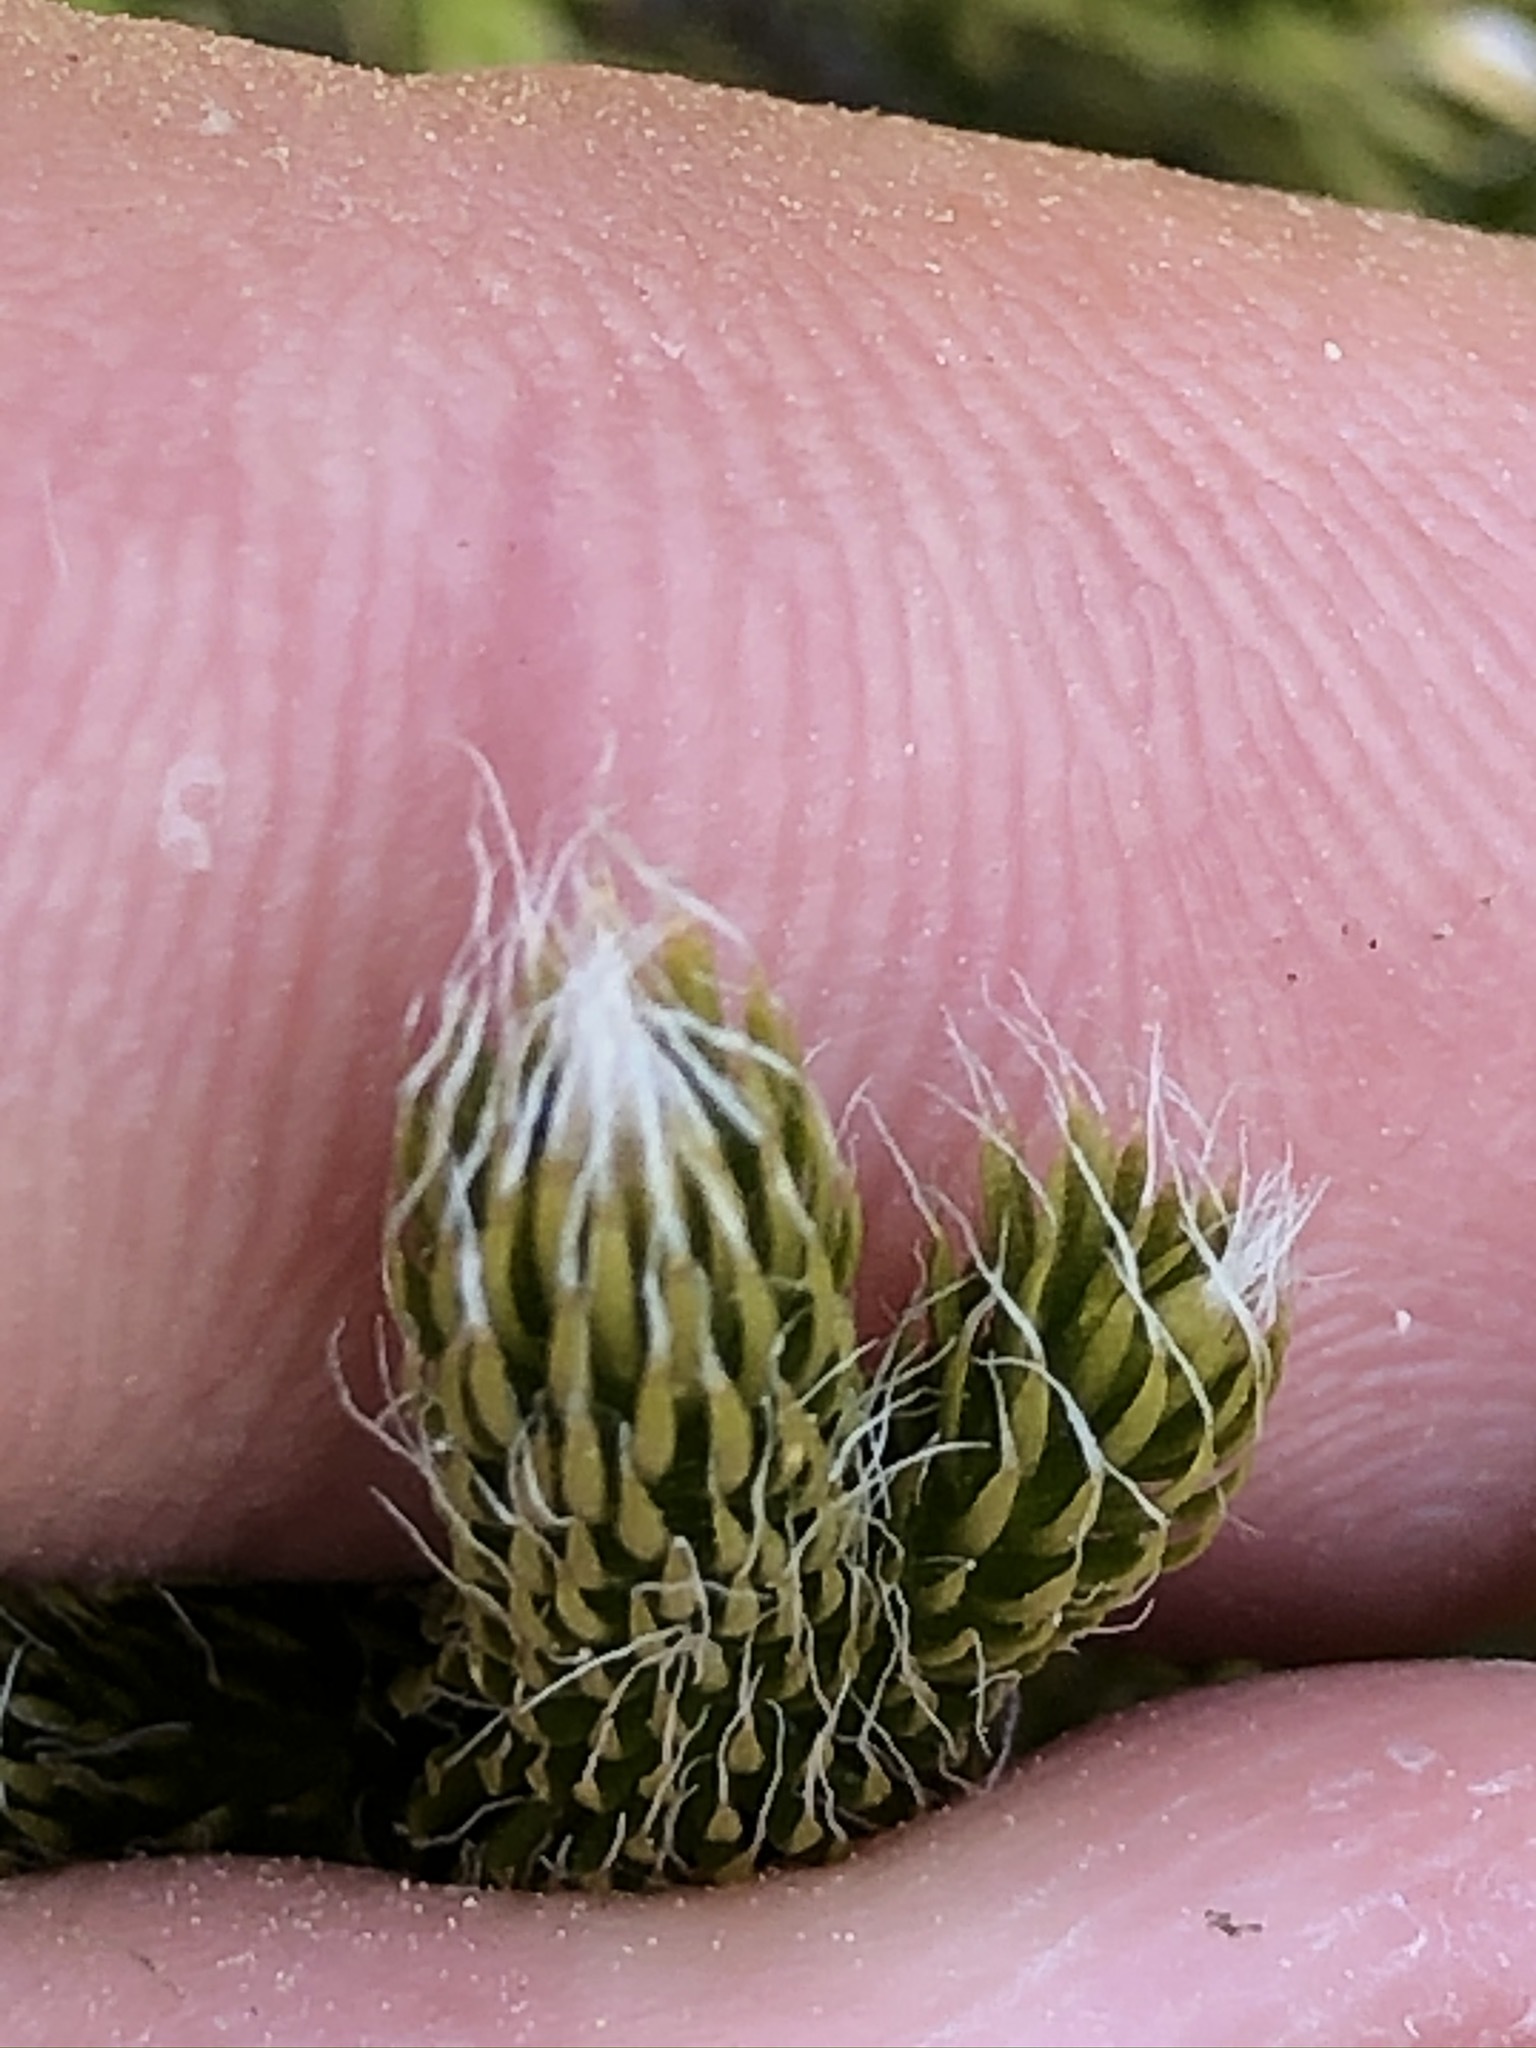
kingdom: Plantae
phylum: Tracheophyta
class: Lycopodiopsida
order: Lycopodiales
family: Lycopodiaceae
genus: Lycopodium
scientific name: Lycopodium clavatum
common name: Stag's-horn clubmoss
